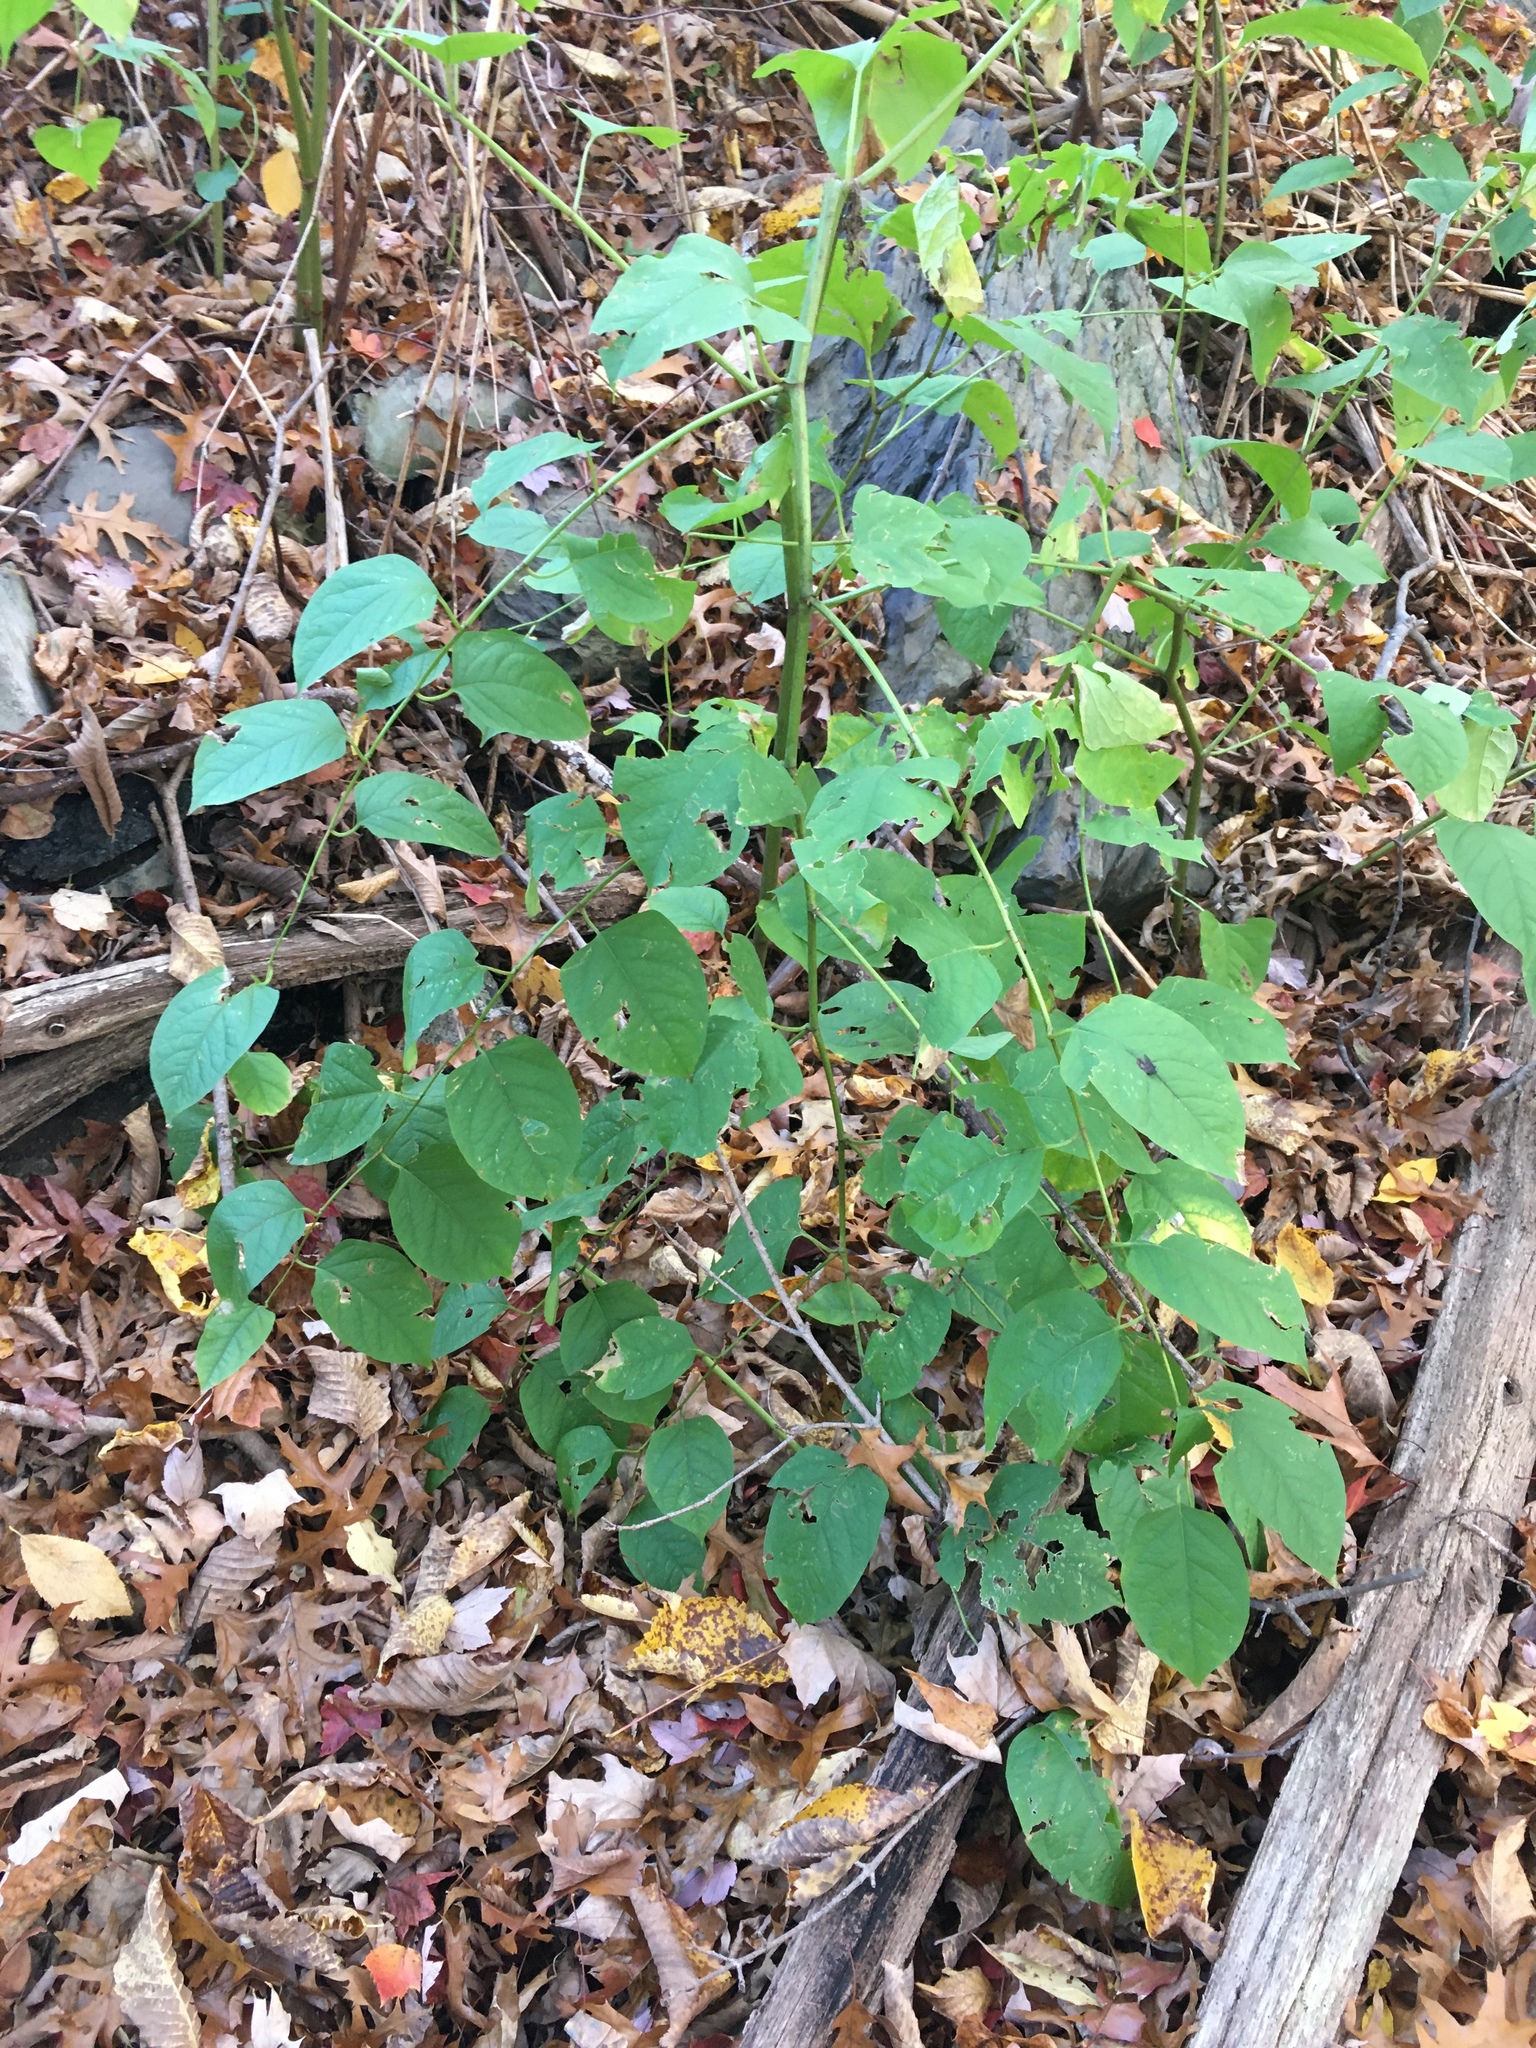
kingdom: Plantae
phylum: Tracheophyta
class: Magnoliopsida
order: Caryophyllales
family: Polygonaceae
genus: Reynoutria
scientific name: Reynoutria japonica
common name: Japanese knotweed
